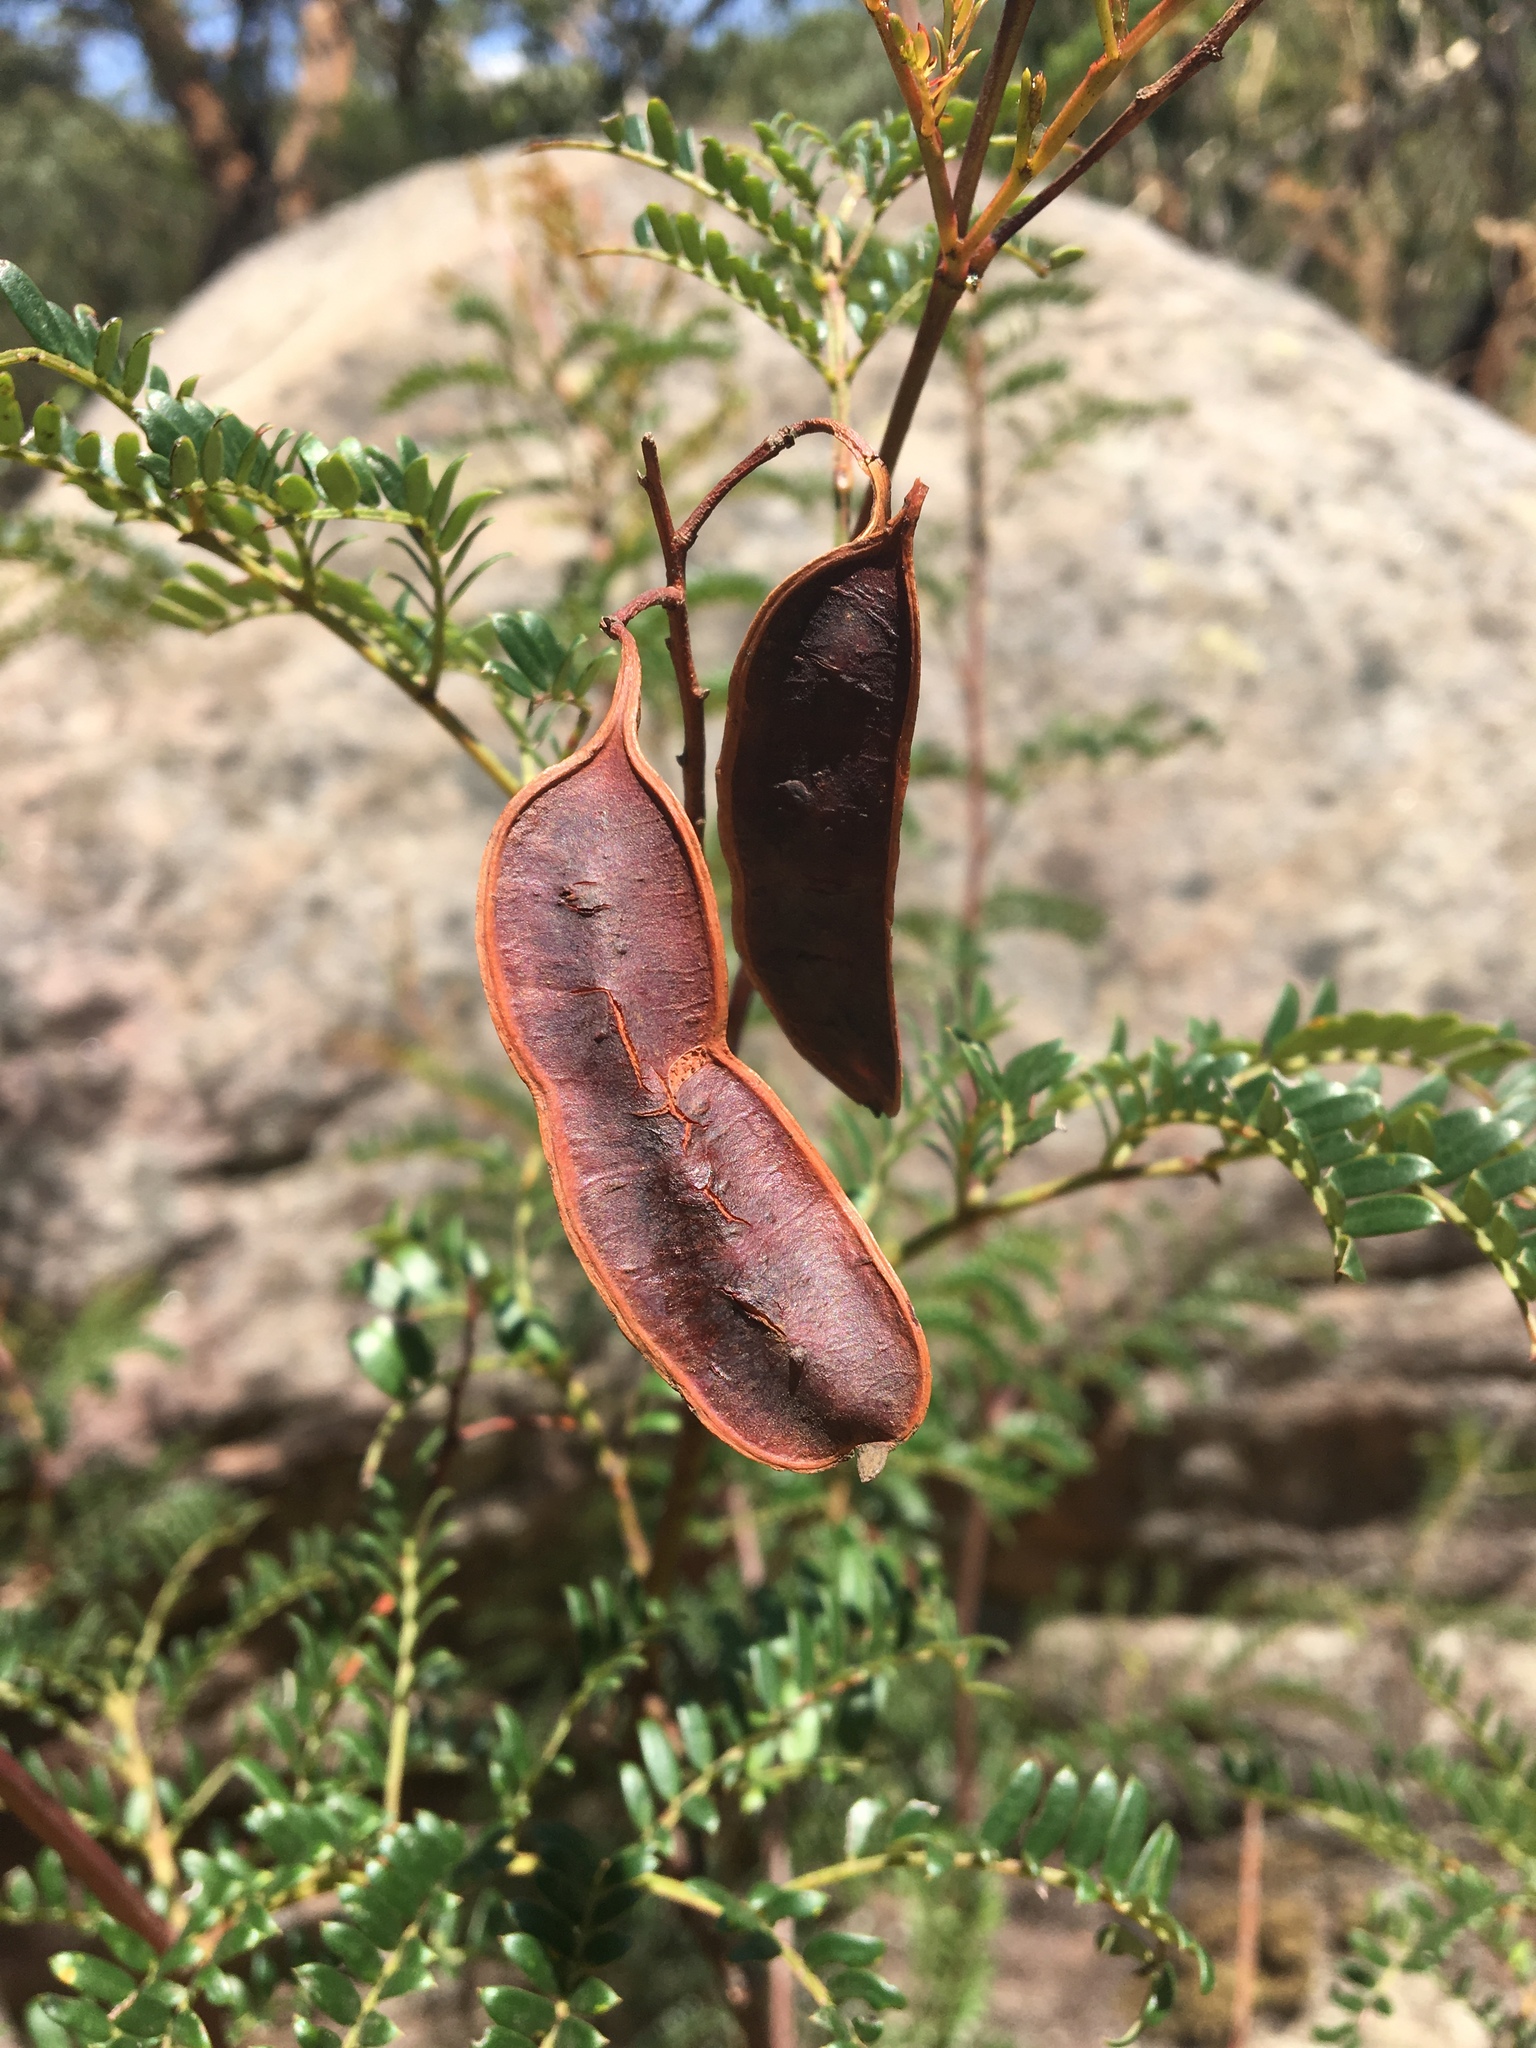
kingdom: Plantae
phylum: Tracheophyta
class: Magnoliopsida
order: Fabales
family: Fabaceae
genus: Acacia
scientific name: Acacia terminalis
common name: Cedar wattle
